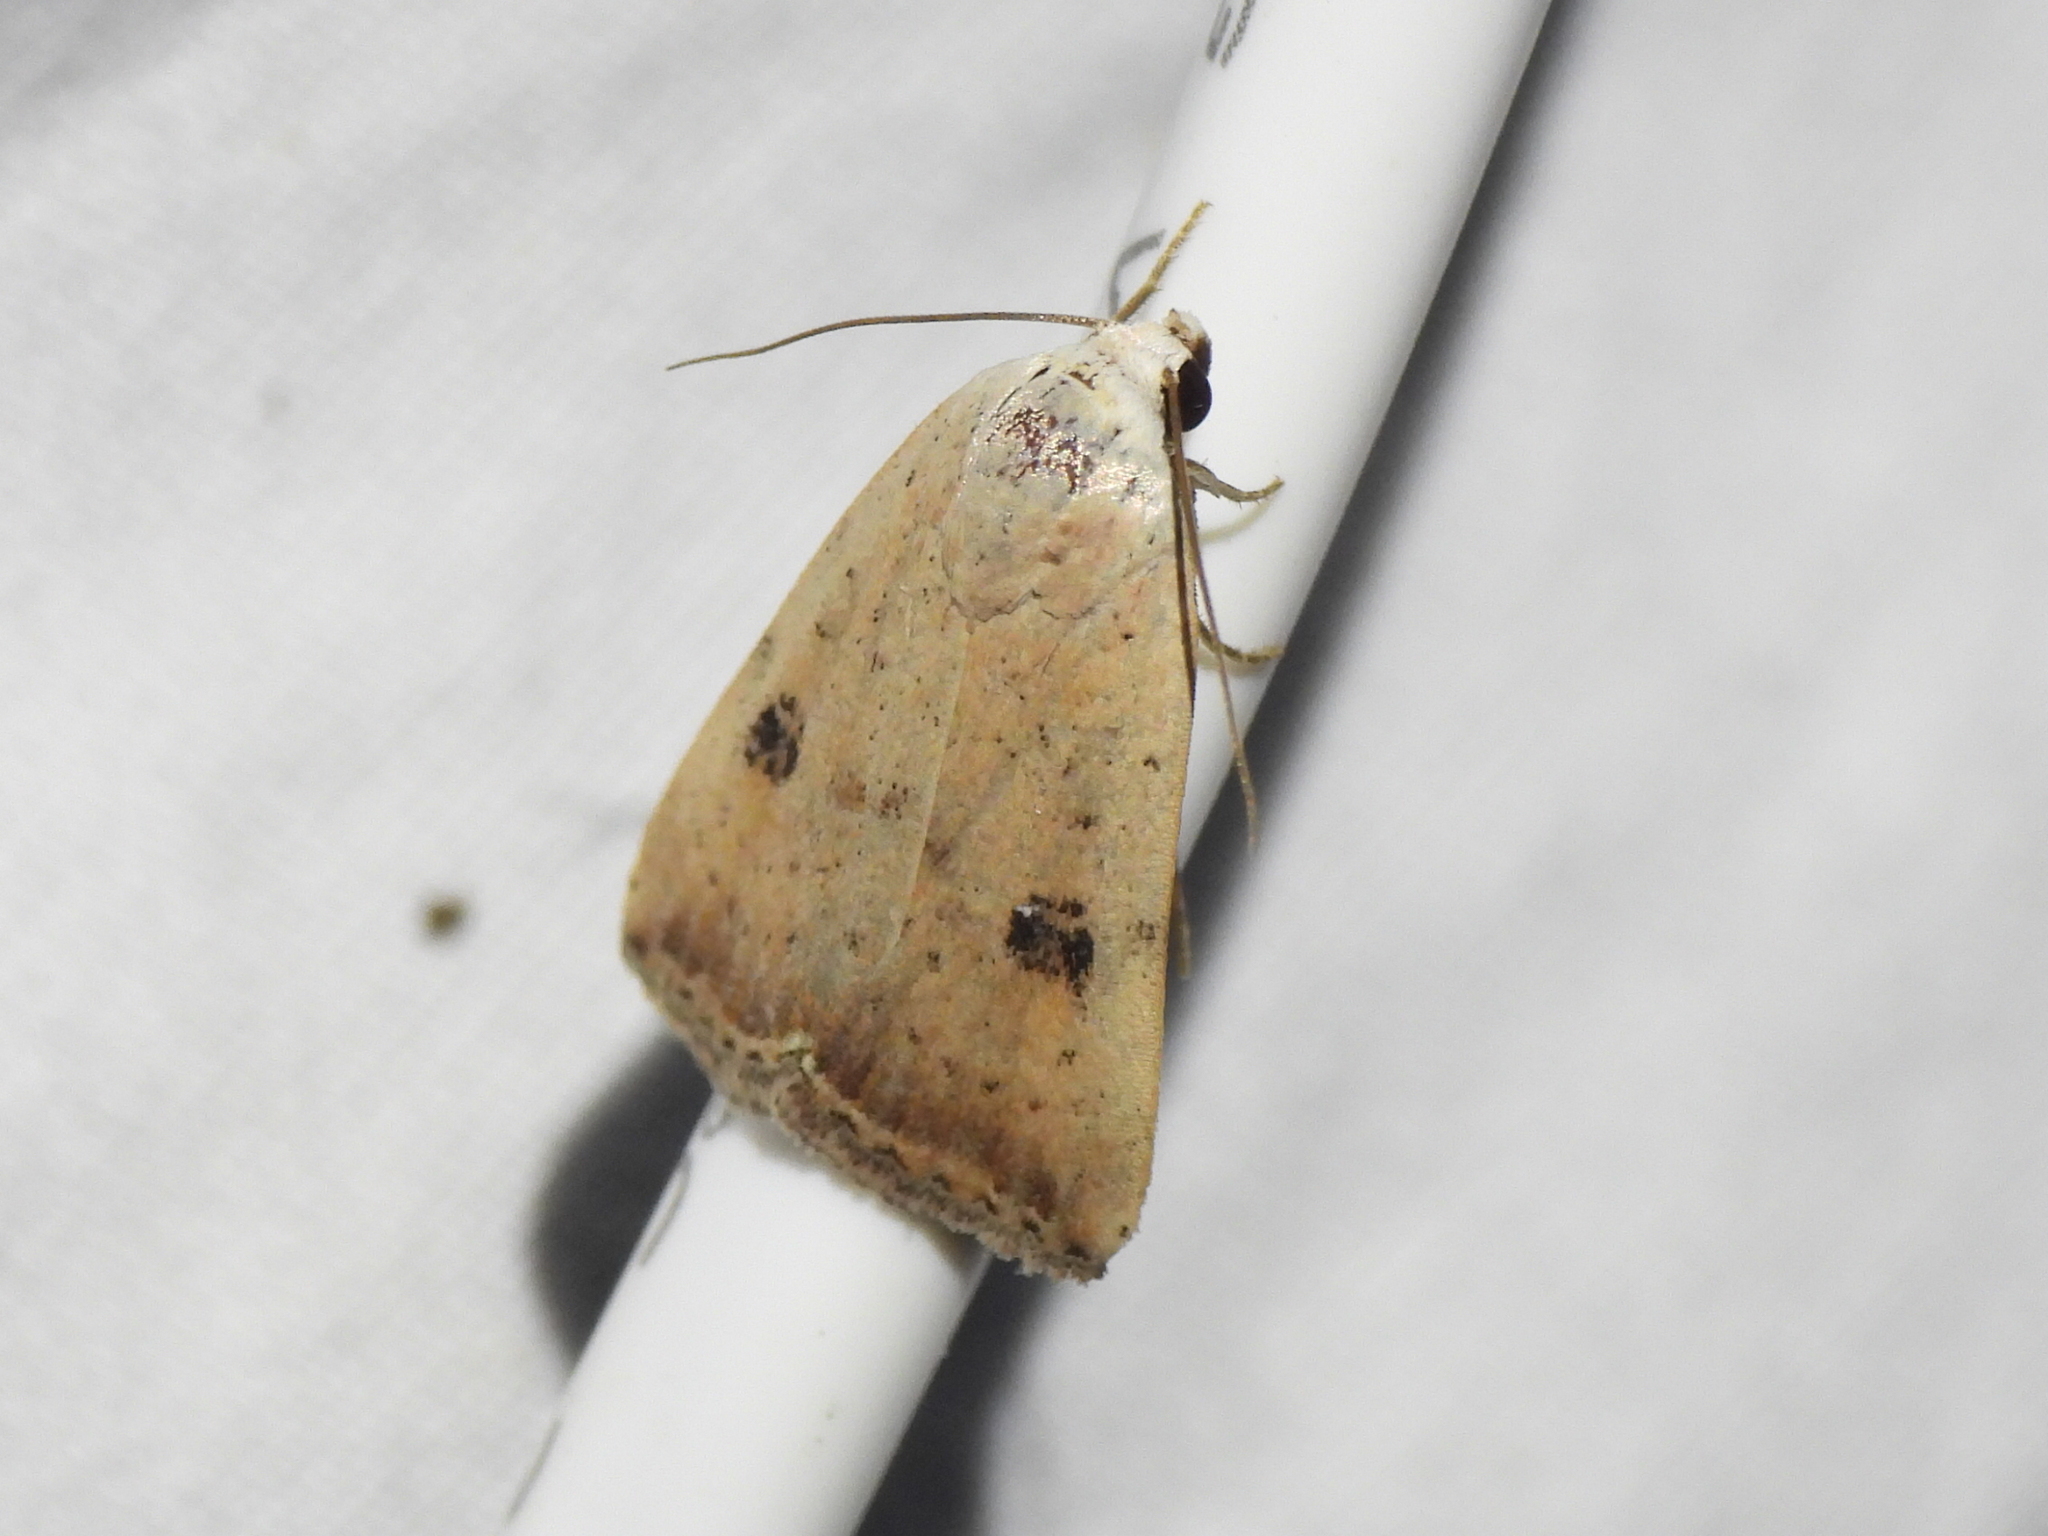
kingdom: Animalia
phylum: Arthropoda
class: Insecta
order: Lepidoptera
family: Noctuidae
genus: Micrathetis
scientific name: Micrathetis triplex
